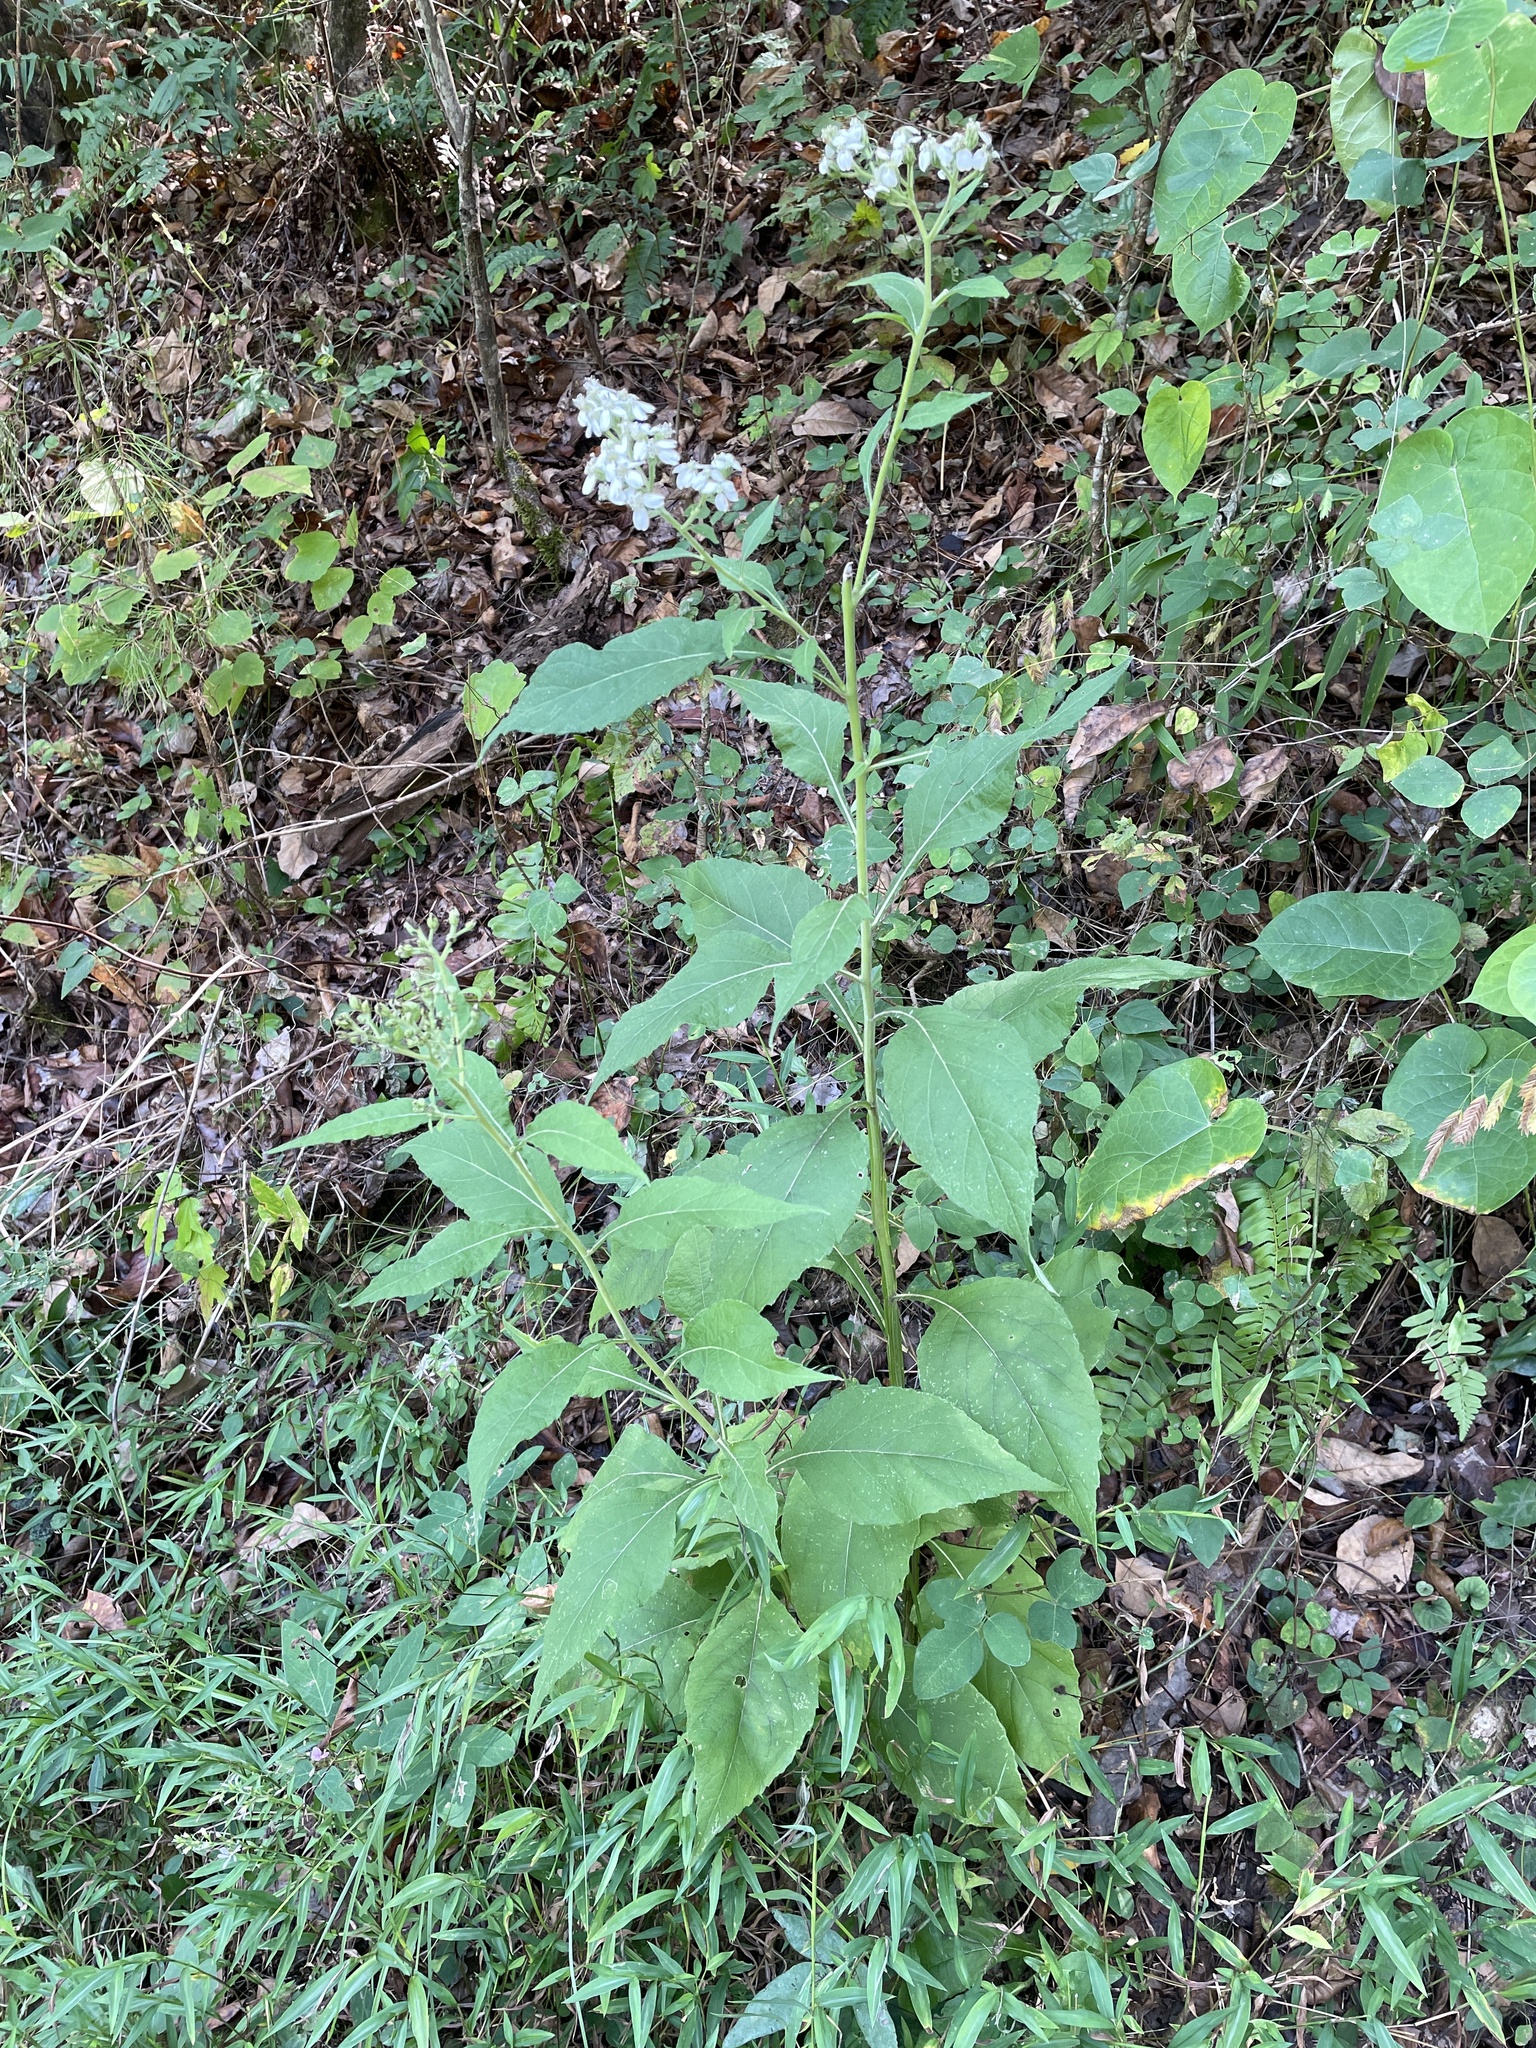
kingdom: Plantae
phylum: Tracheophyta
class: Magnoliopsida
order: Asterales
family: Asteraceae
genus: Verbesina
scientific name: Verbesina virginica
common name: Frostweed
